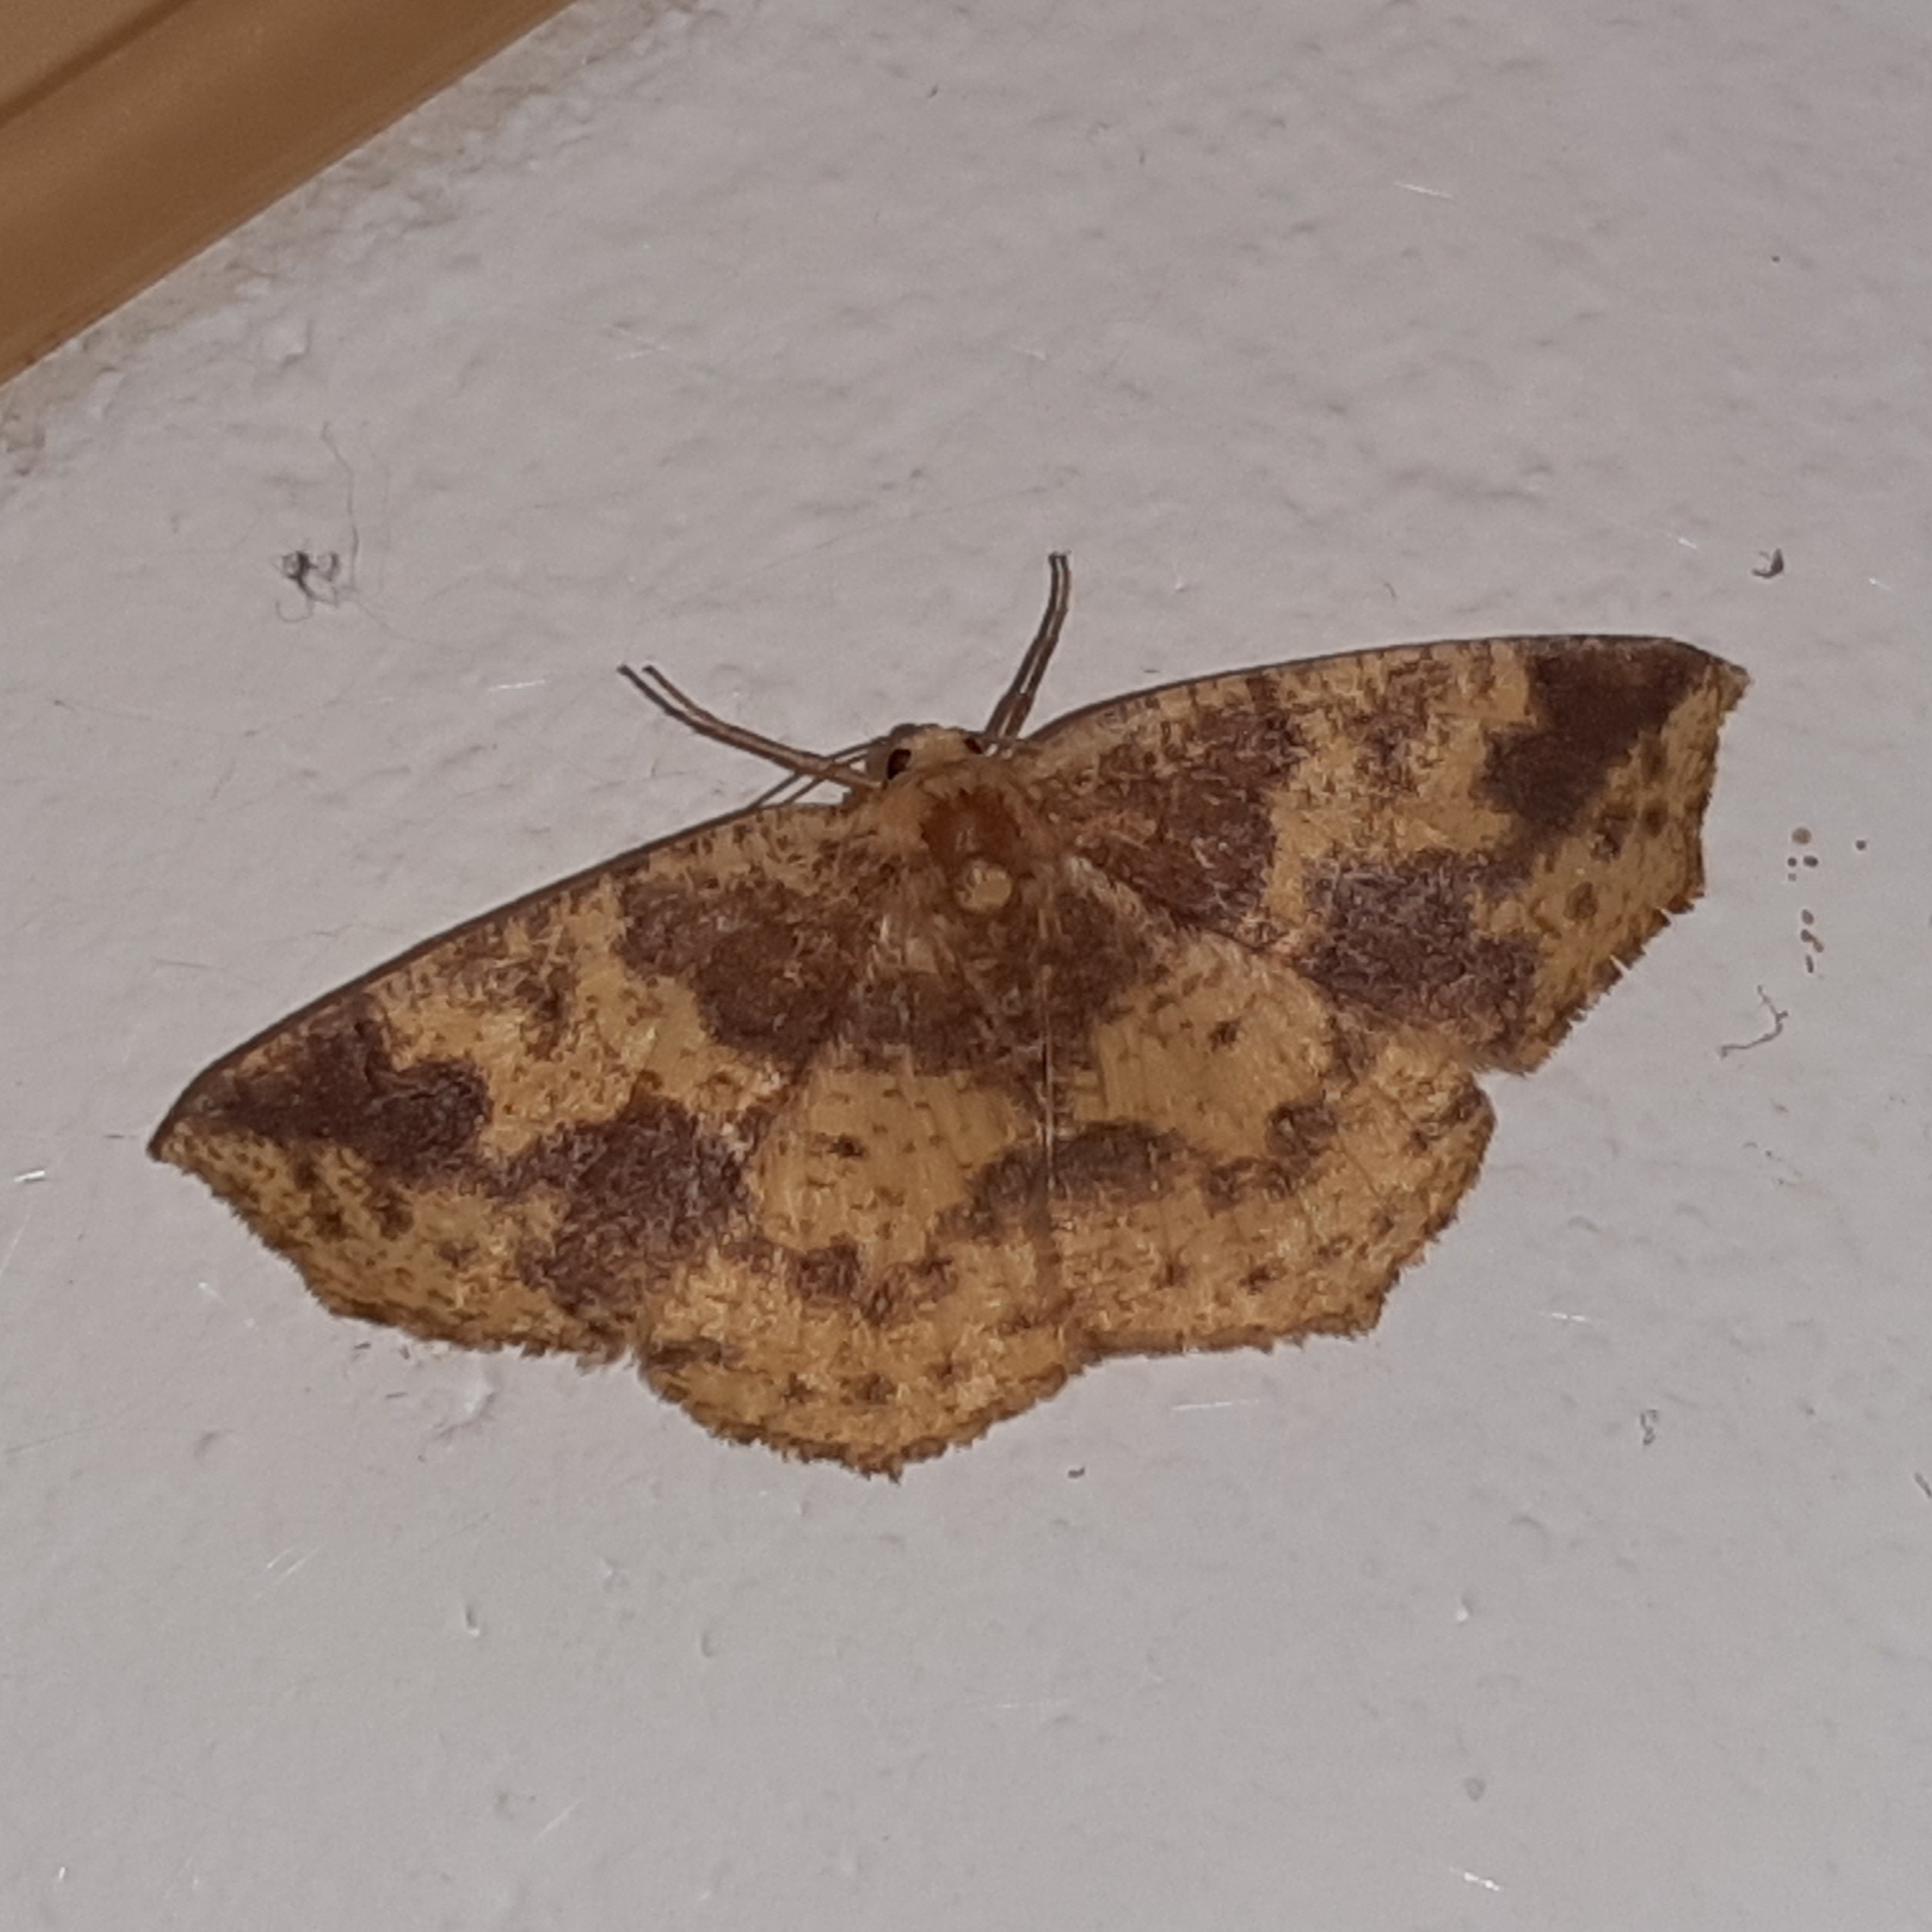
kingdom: Animalia
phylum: Arthropoda
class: Insecta
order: Lepidoptera
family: Geometridae
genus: Periclina
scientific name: Periclina merana
